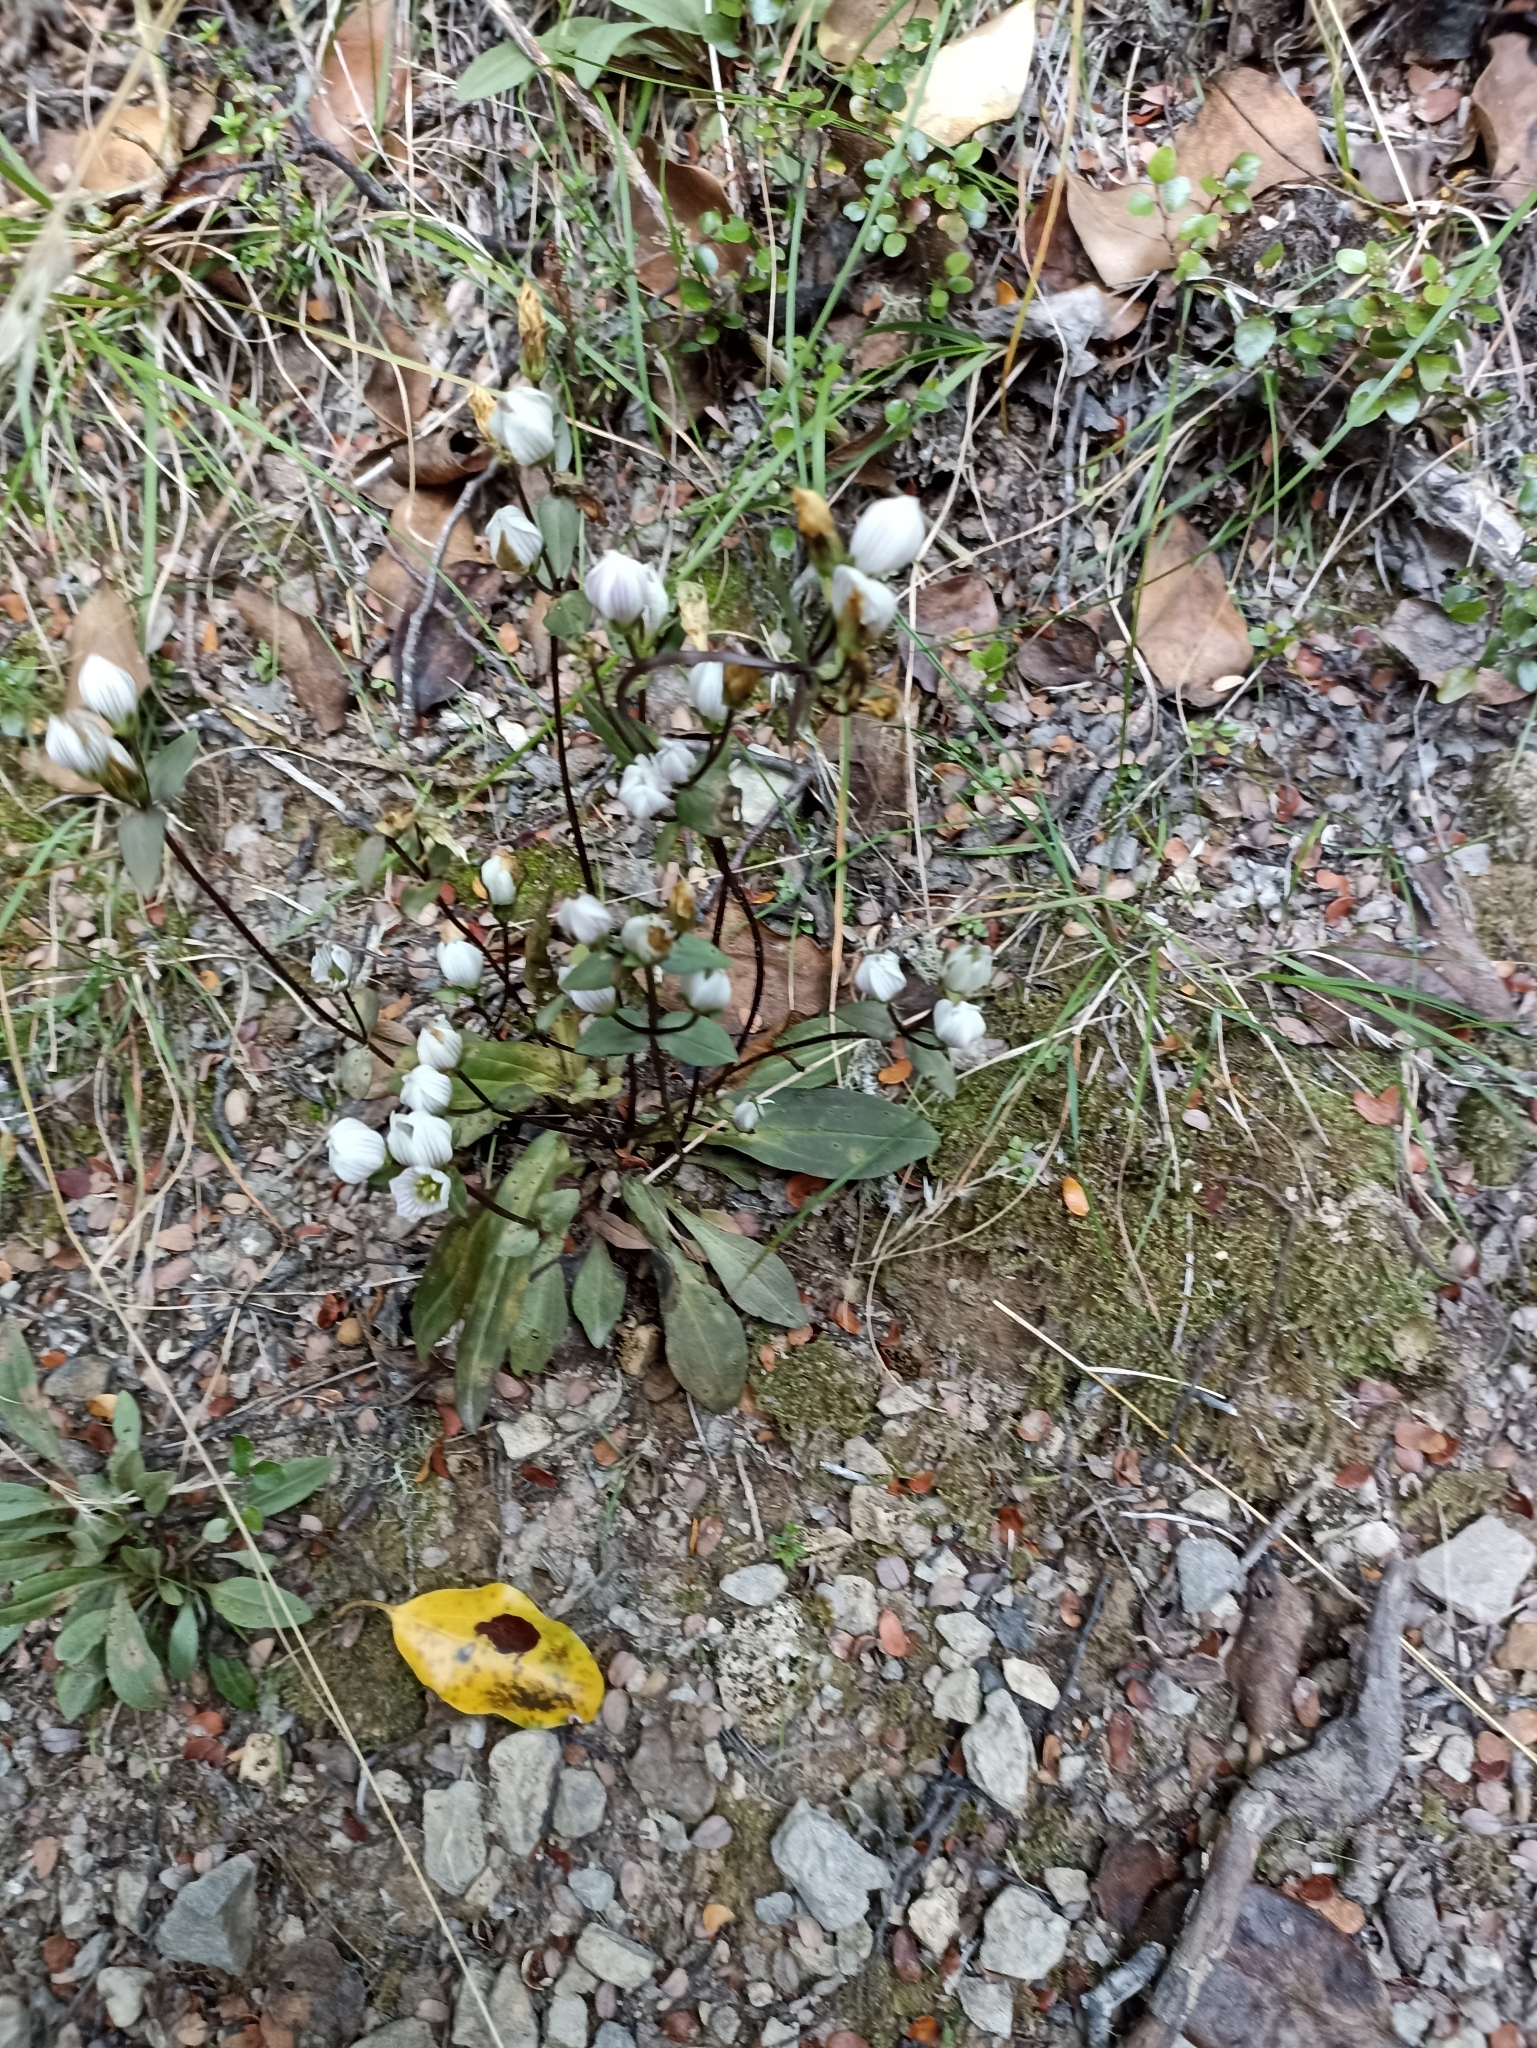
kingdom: Plantae
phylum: Tracheophyta
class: Magnoliopsida
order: Gentianales
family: Gentianaceae
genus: Gentianella
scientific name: Gentianella tenuifolia
